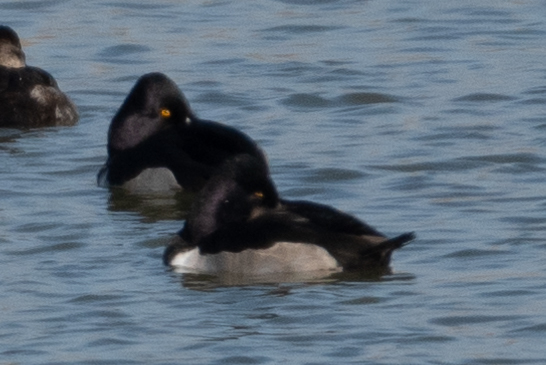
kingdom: Animalia
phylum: Chordata
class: Aves
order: Anseriformes
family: Anatidae
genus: Aythya
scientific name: Aythya collaris
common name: Ring-necked duck
